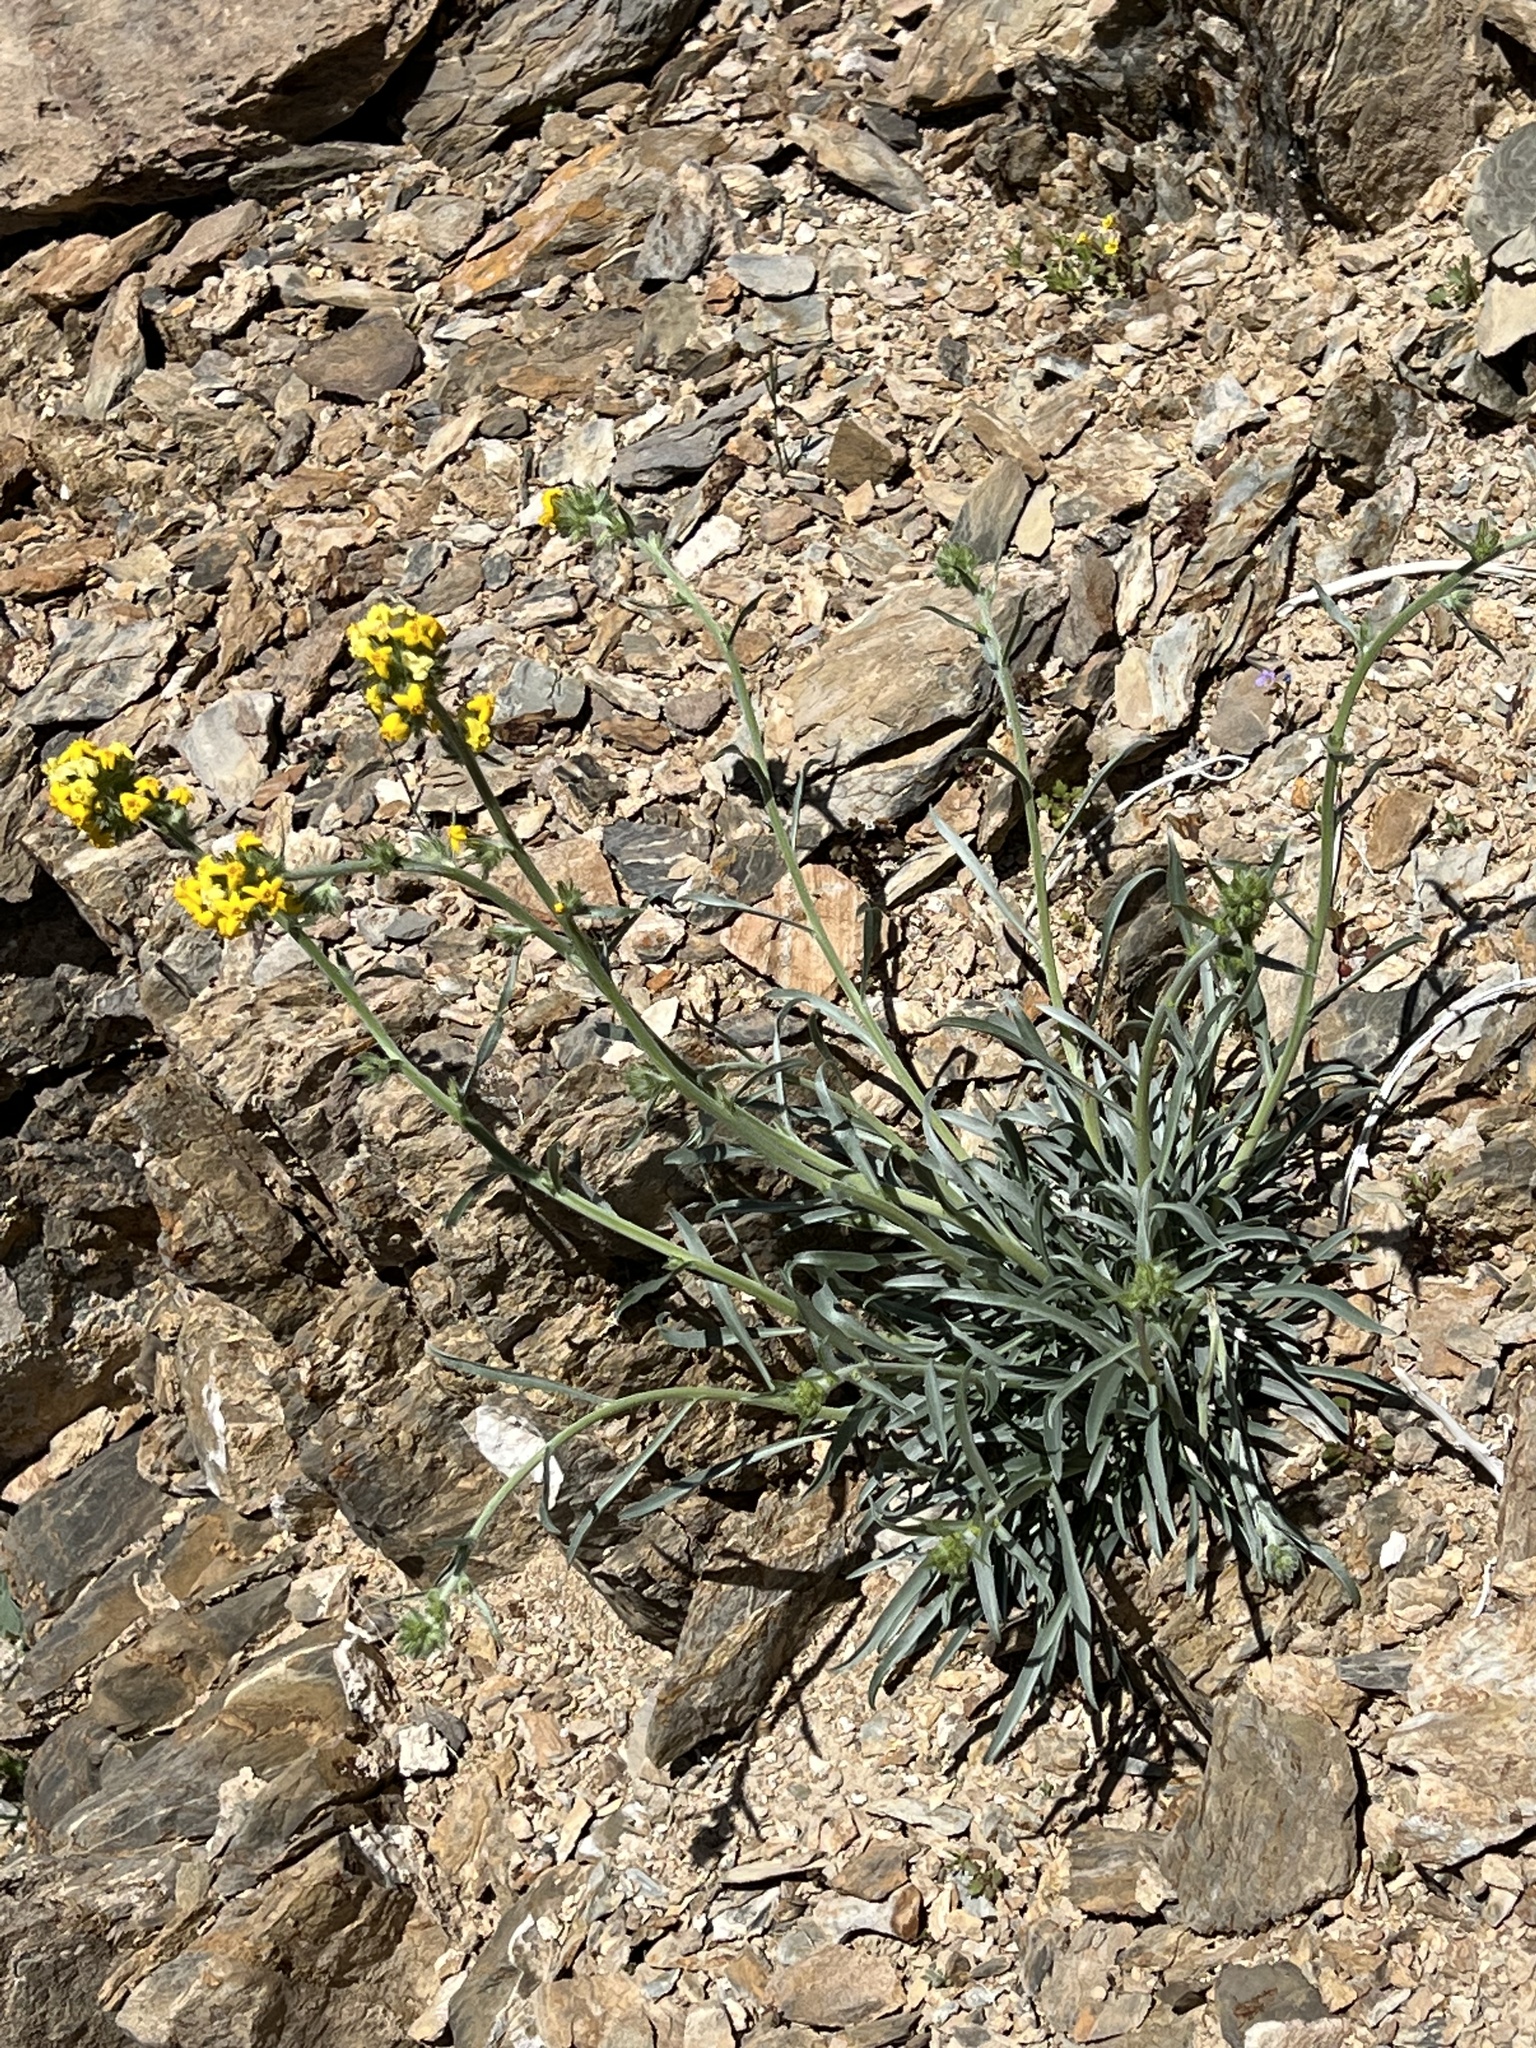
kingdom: Plantae
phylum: Tracheophyta
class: Magnoliopsida
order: Boraginales
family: Boraginaceae
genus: Oreocarya
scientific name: Oreocarya confertiflora
